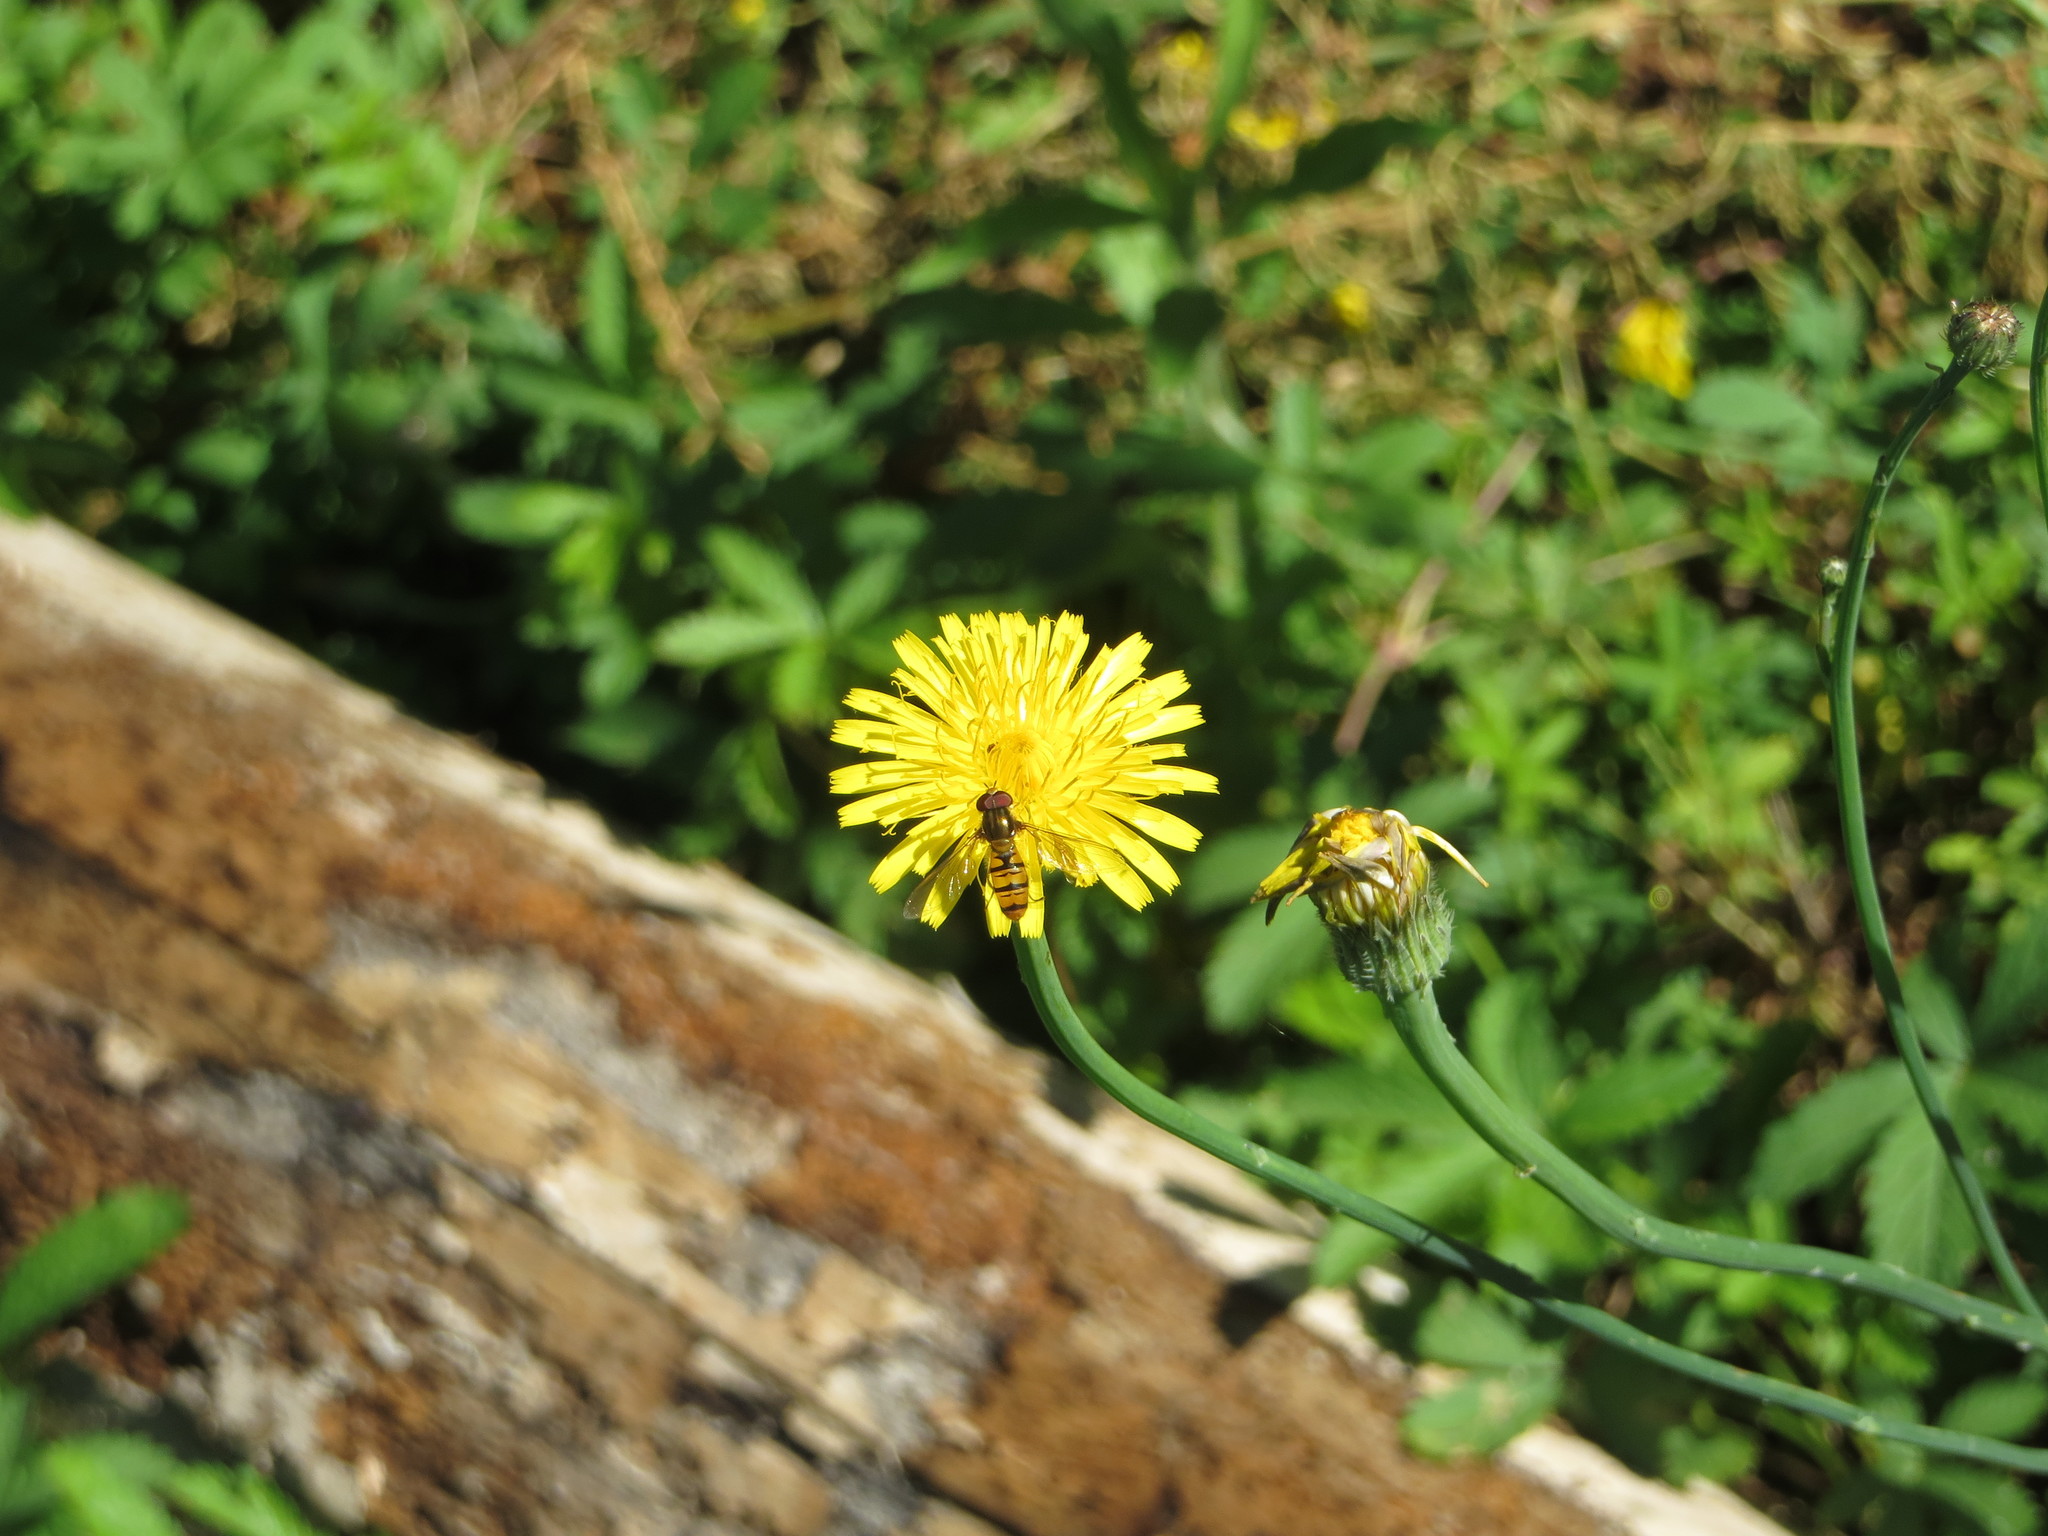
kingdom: Animalia
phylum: Arthropoda
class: Insecta
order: Diptera
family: Syrphidae
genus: Episyrphus
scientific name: Episyrphus balteatus
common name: Marmalade hoverfly
